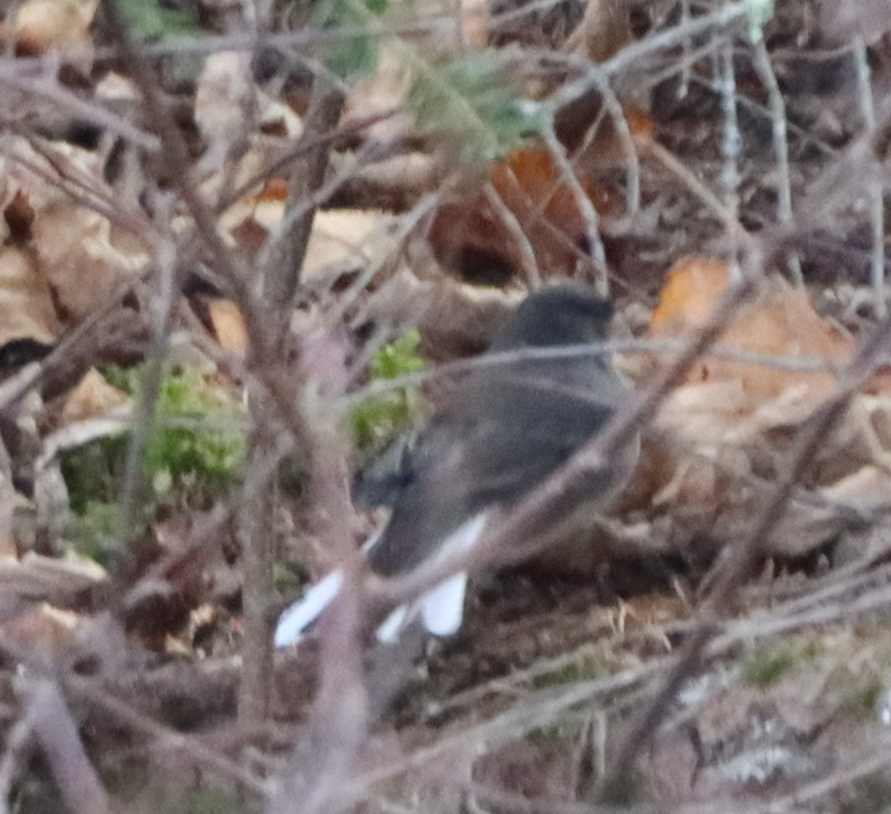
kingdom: Animalia
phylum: Chordata
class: Aves
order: Passeriformes
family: Passerellidae
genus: Junco
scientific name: Junco hyemalis
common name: Dark-eyed junco
